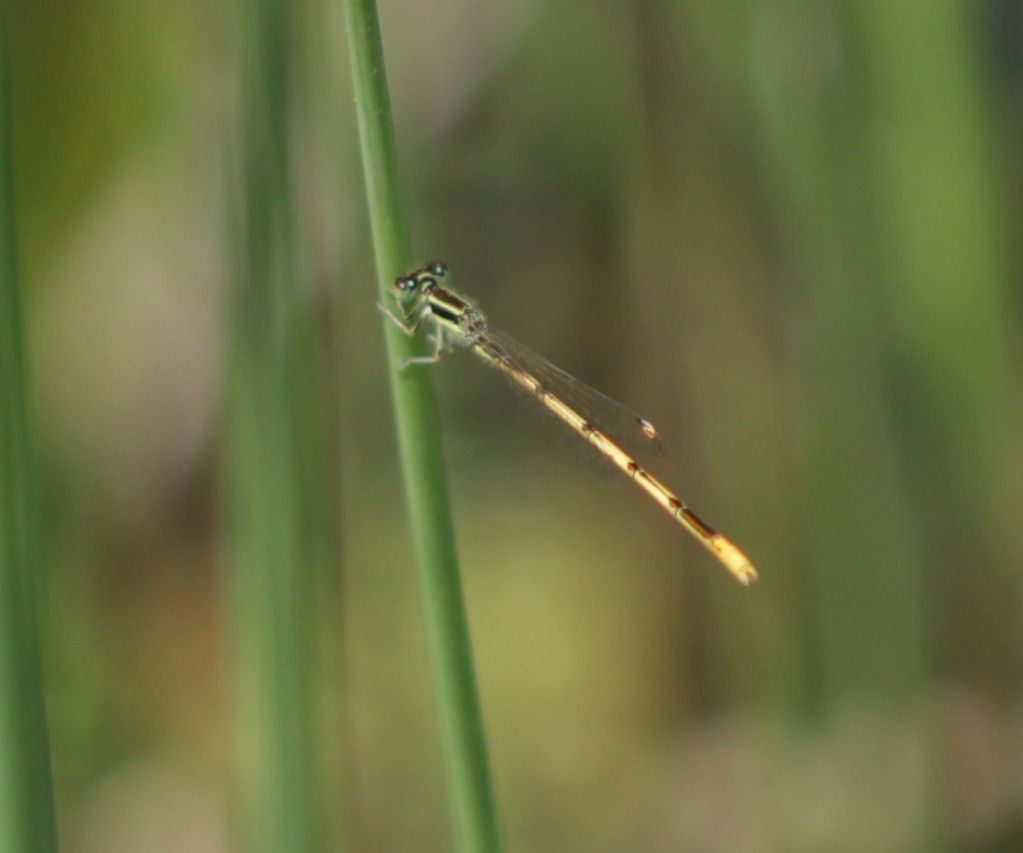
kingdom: Animalia
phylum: Arthropoda
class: Insecta
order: Odonata
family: Coenagrionidae
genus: Ischnura
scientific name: Ischnura hastata
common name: Citrine forktail
